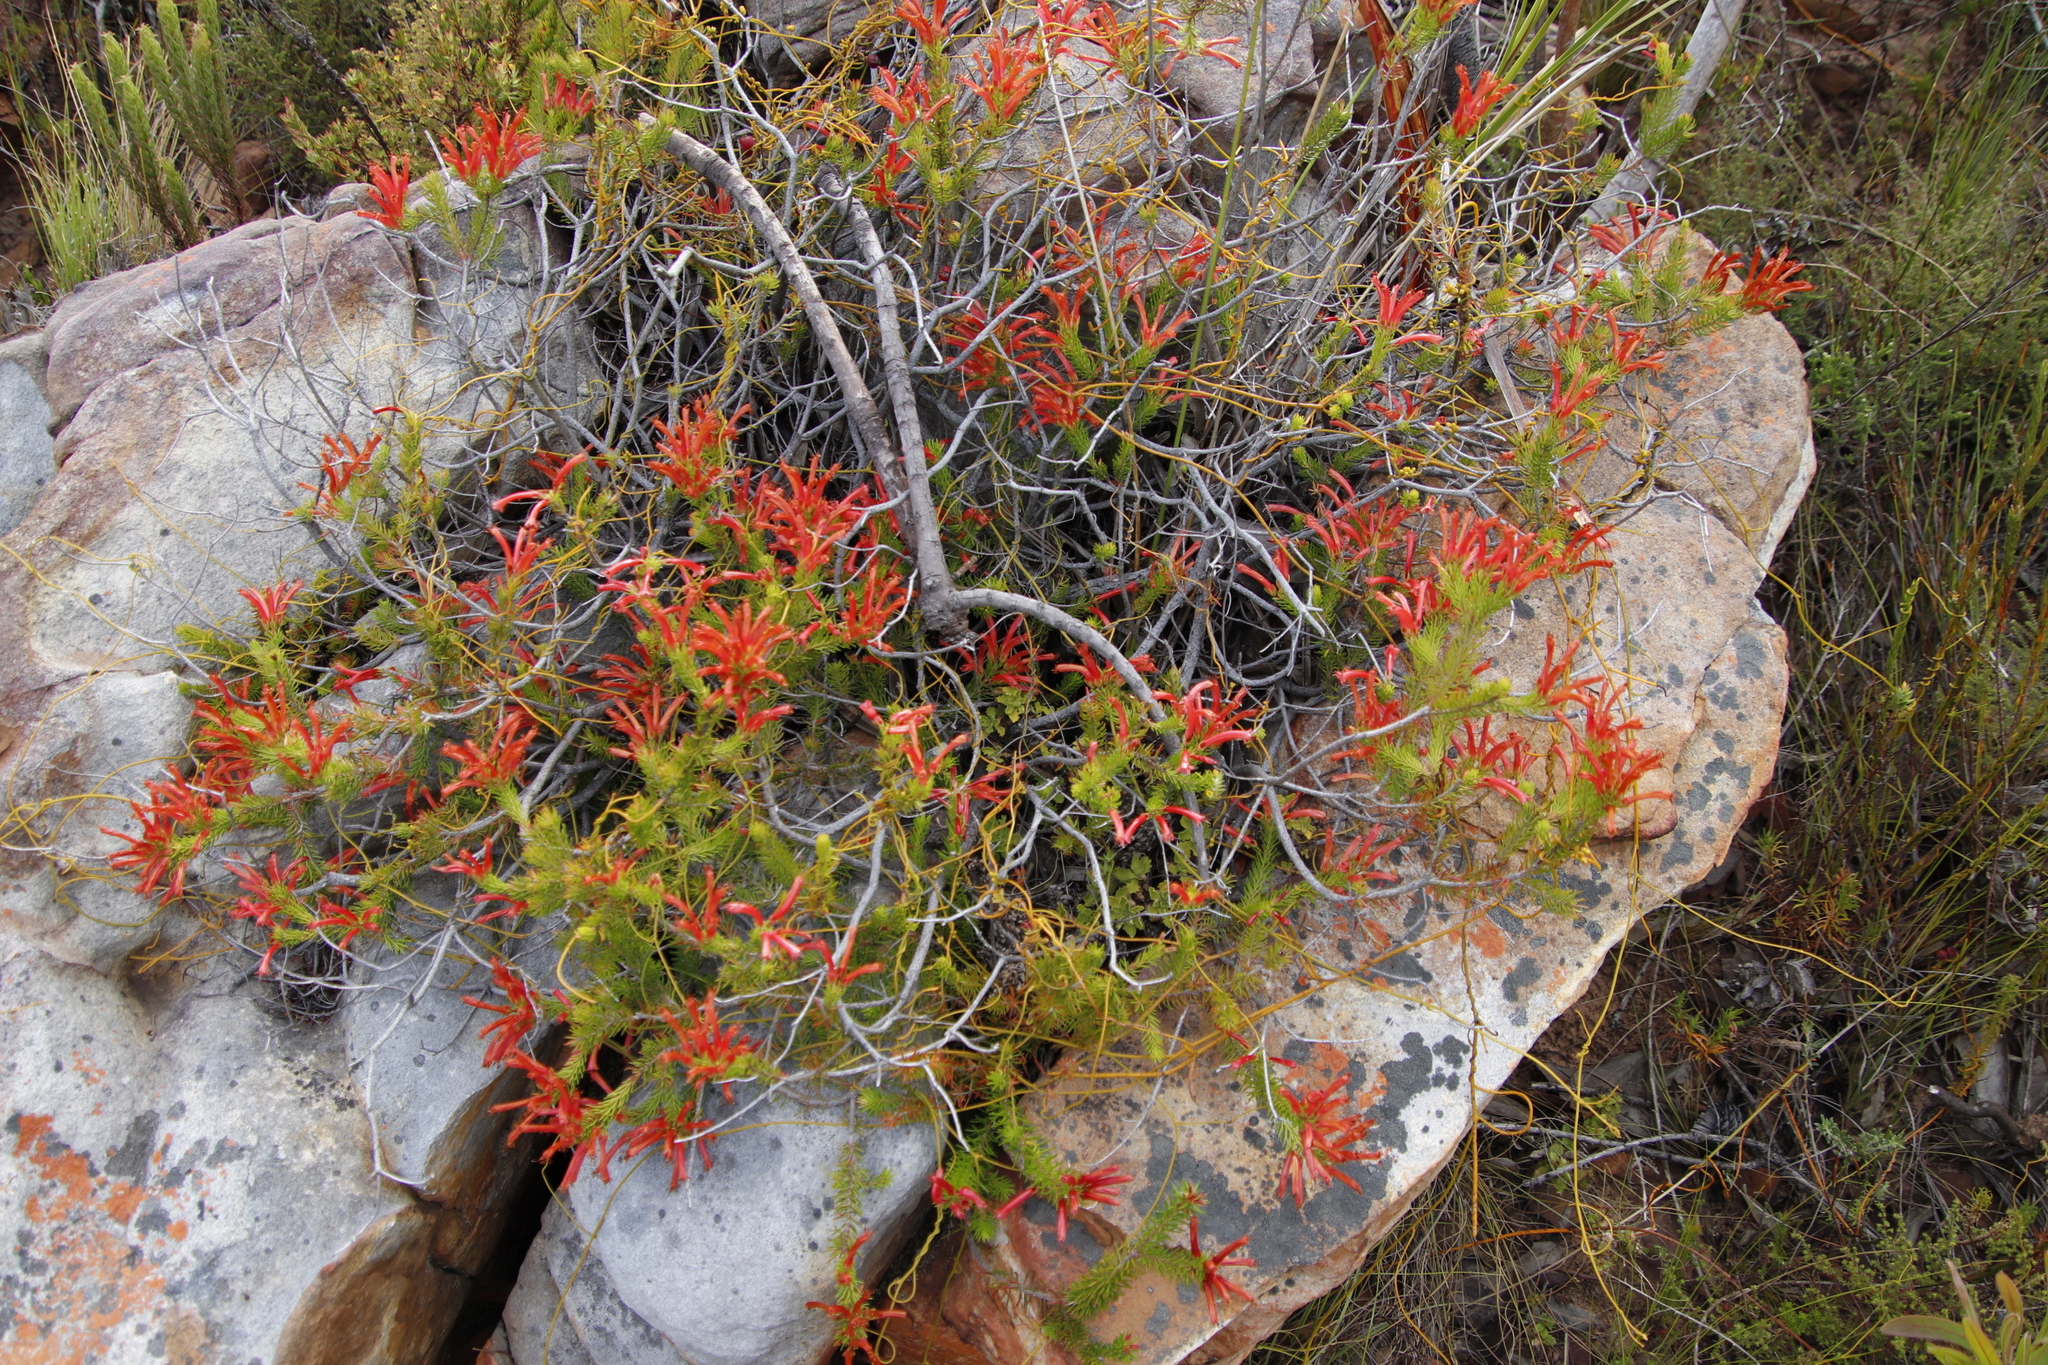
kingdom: Plantae
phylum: Tracheophyta
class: Magnoliopsida
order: Ericales
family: Ericaceae
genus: Erica
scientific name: Erica nevillei
